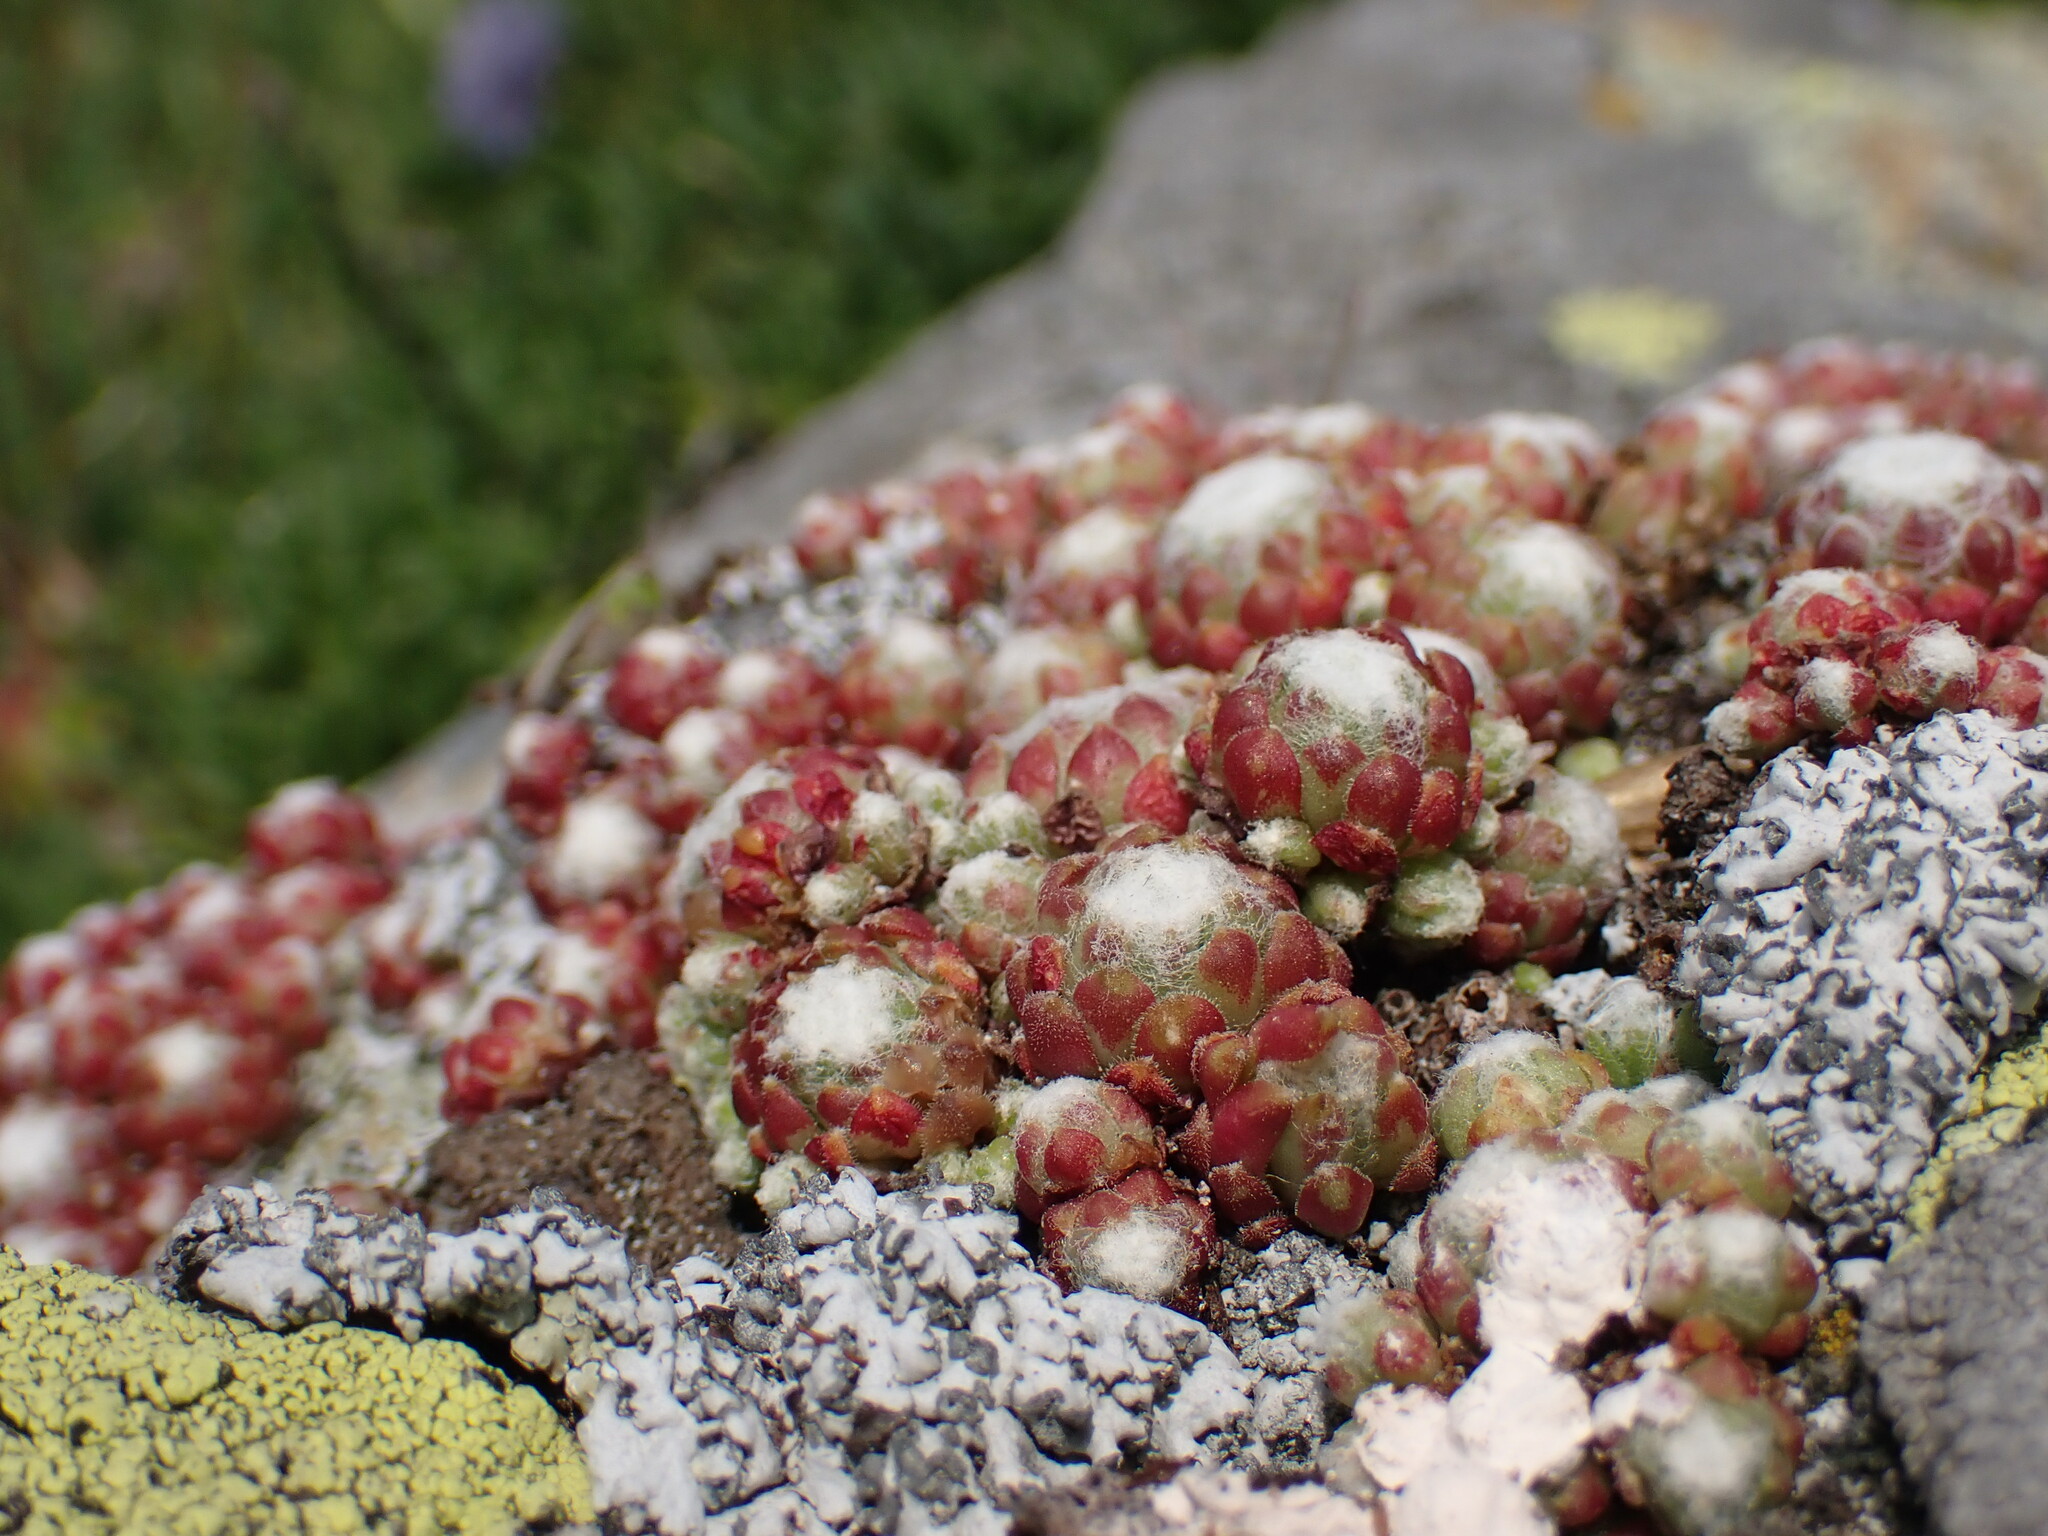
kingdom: Plantae
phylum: Tracheophyta
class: Magnoliopsida
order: Saxifragales
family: Crassulaceae
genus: Sempervivum
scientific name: Sempervivum arachnoideum
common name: Cobweb house-leek
